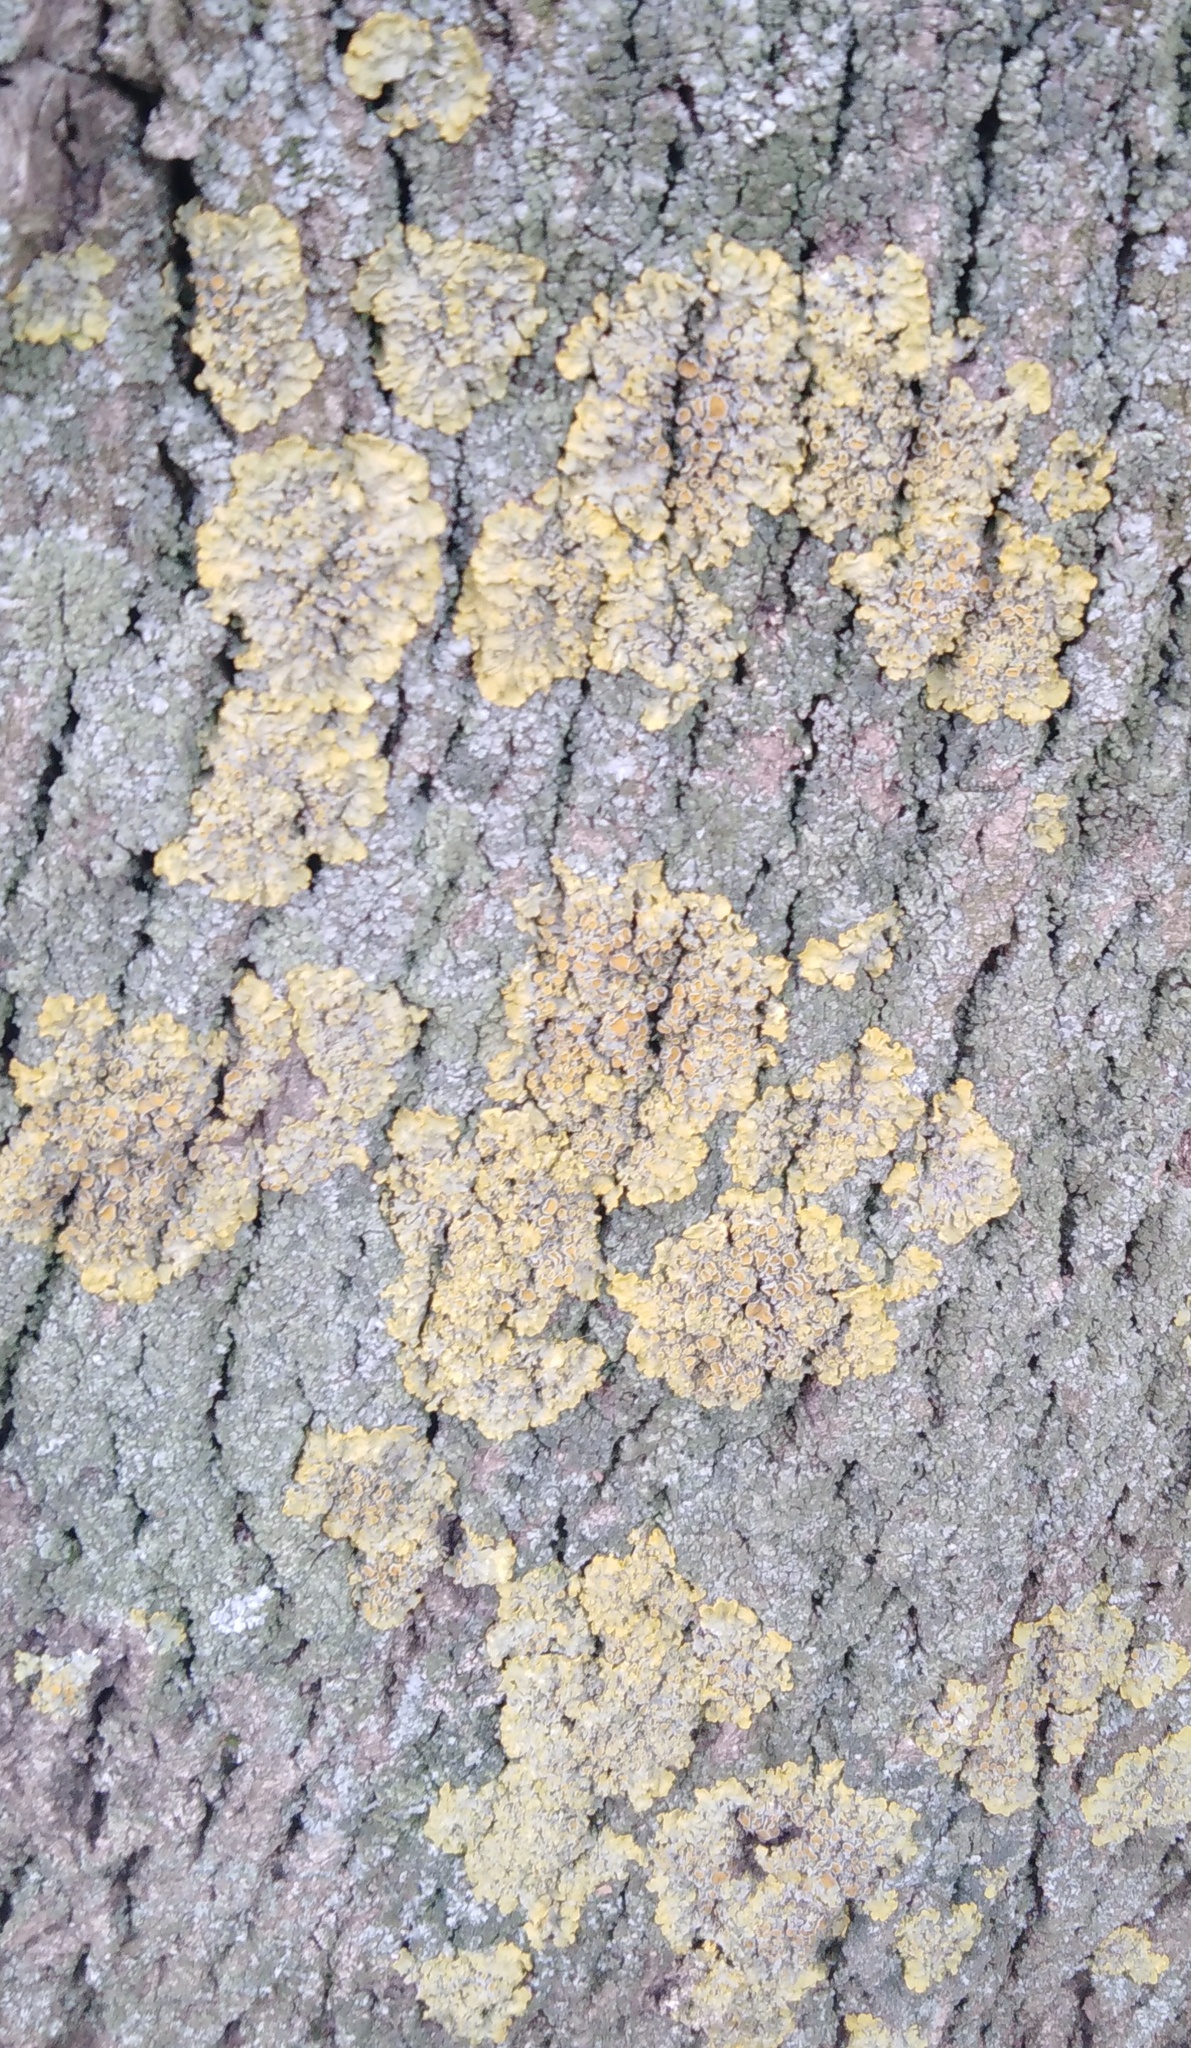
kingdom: Fungi
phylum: Ascomycota
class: Lecanoromycetes
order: Teloschistales
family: Teloschistaceae
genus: Xanthoria
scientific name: Xanthoria parietina
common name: Common orange lichen
